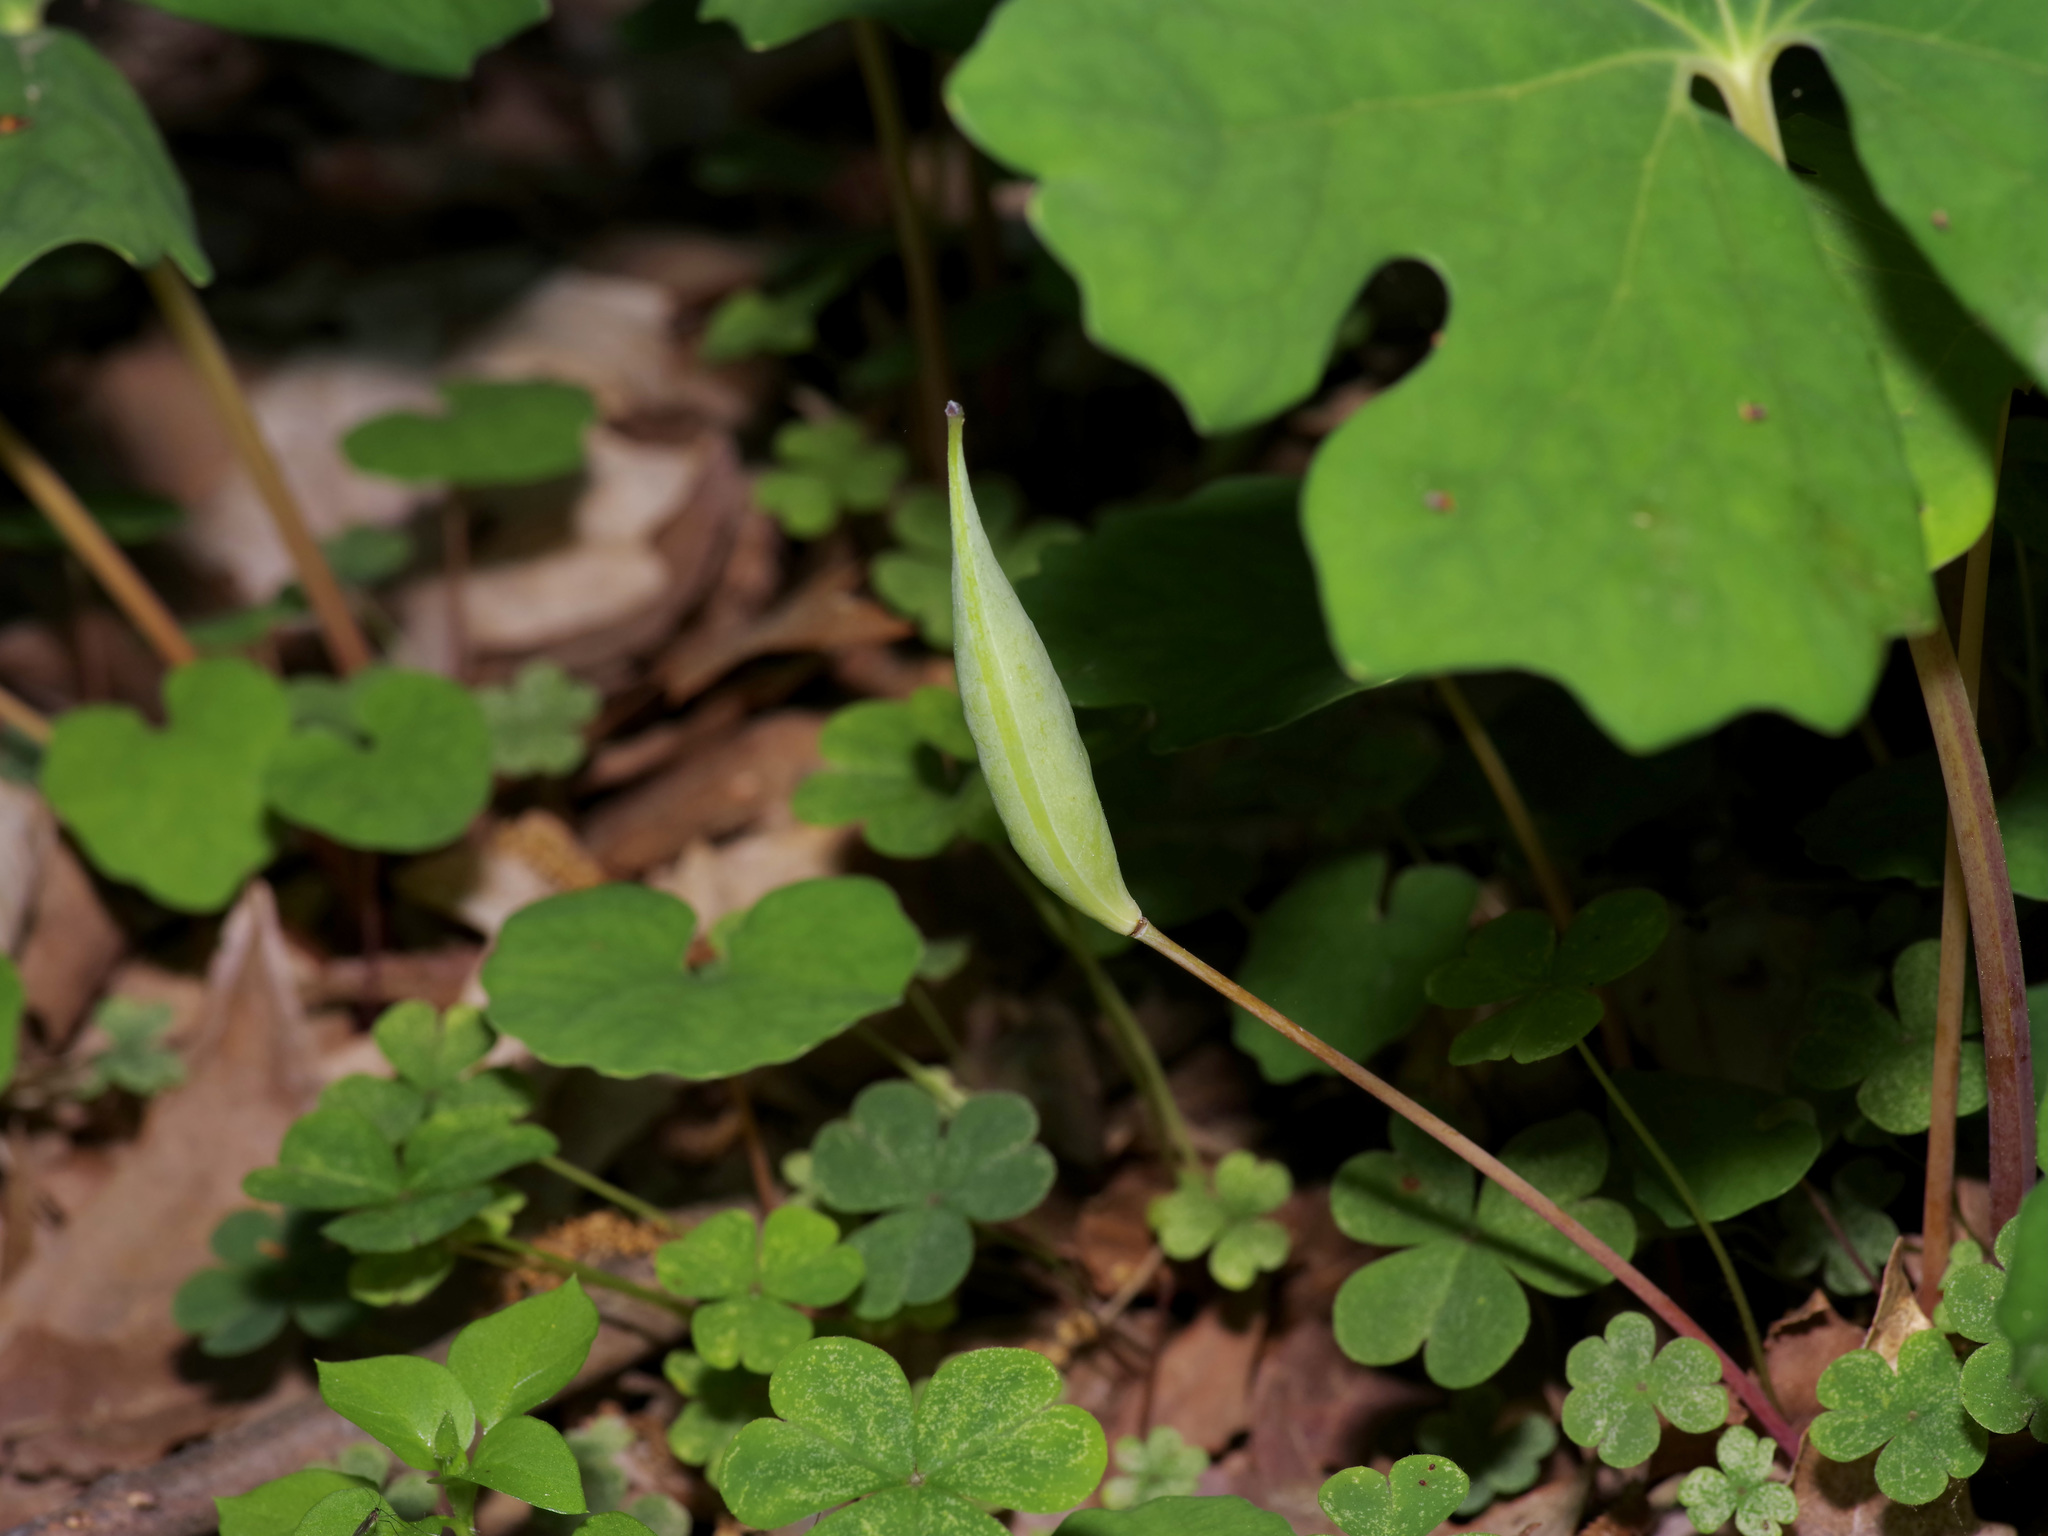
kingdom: Plantae
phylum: Tracheophyta
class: Magnoliopsida
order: Ranunculales
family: Papaveraceae
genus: Sanguinaria
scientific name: Sanguinaria canadensis
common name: Bloodroot
